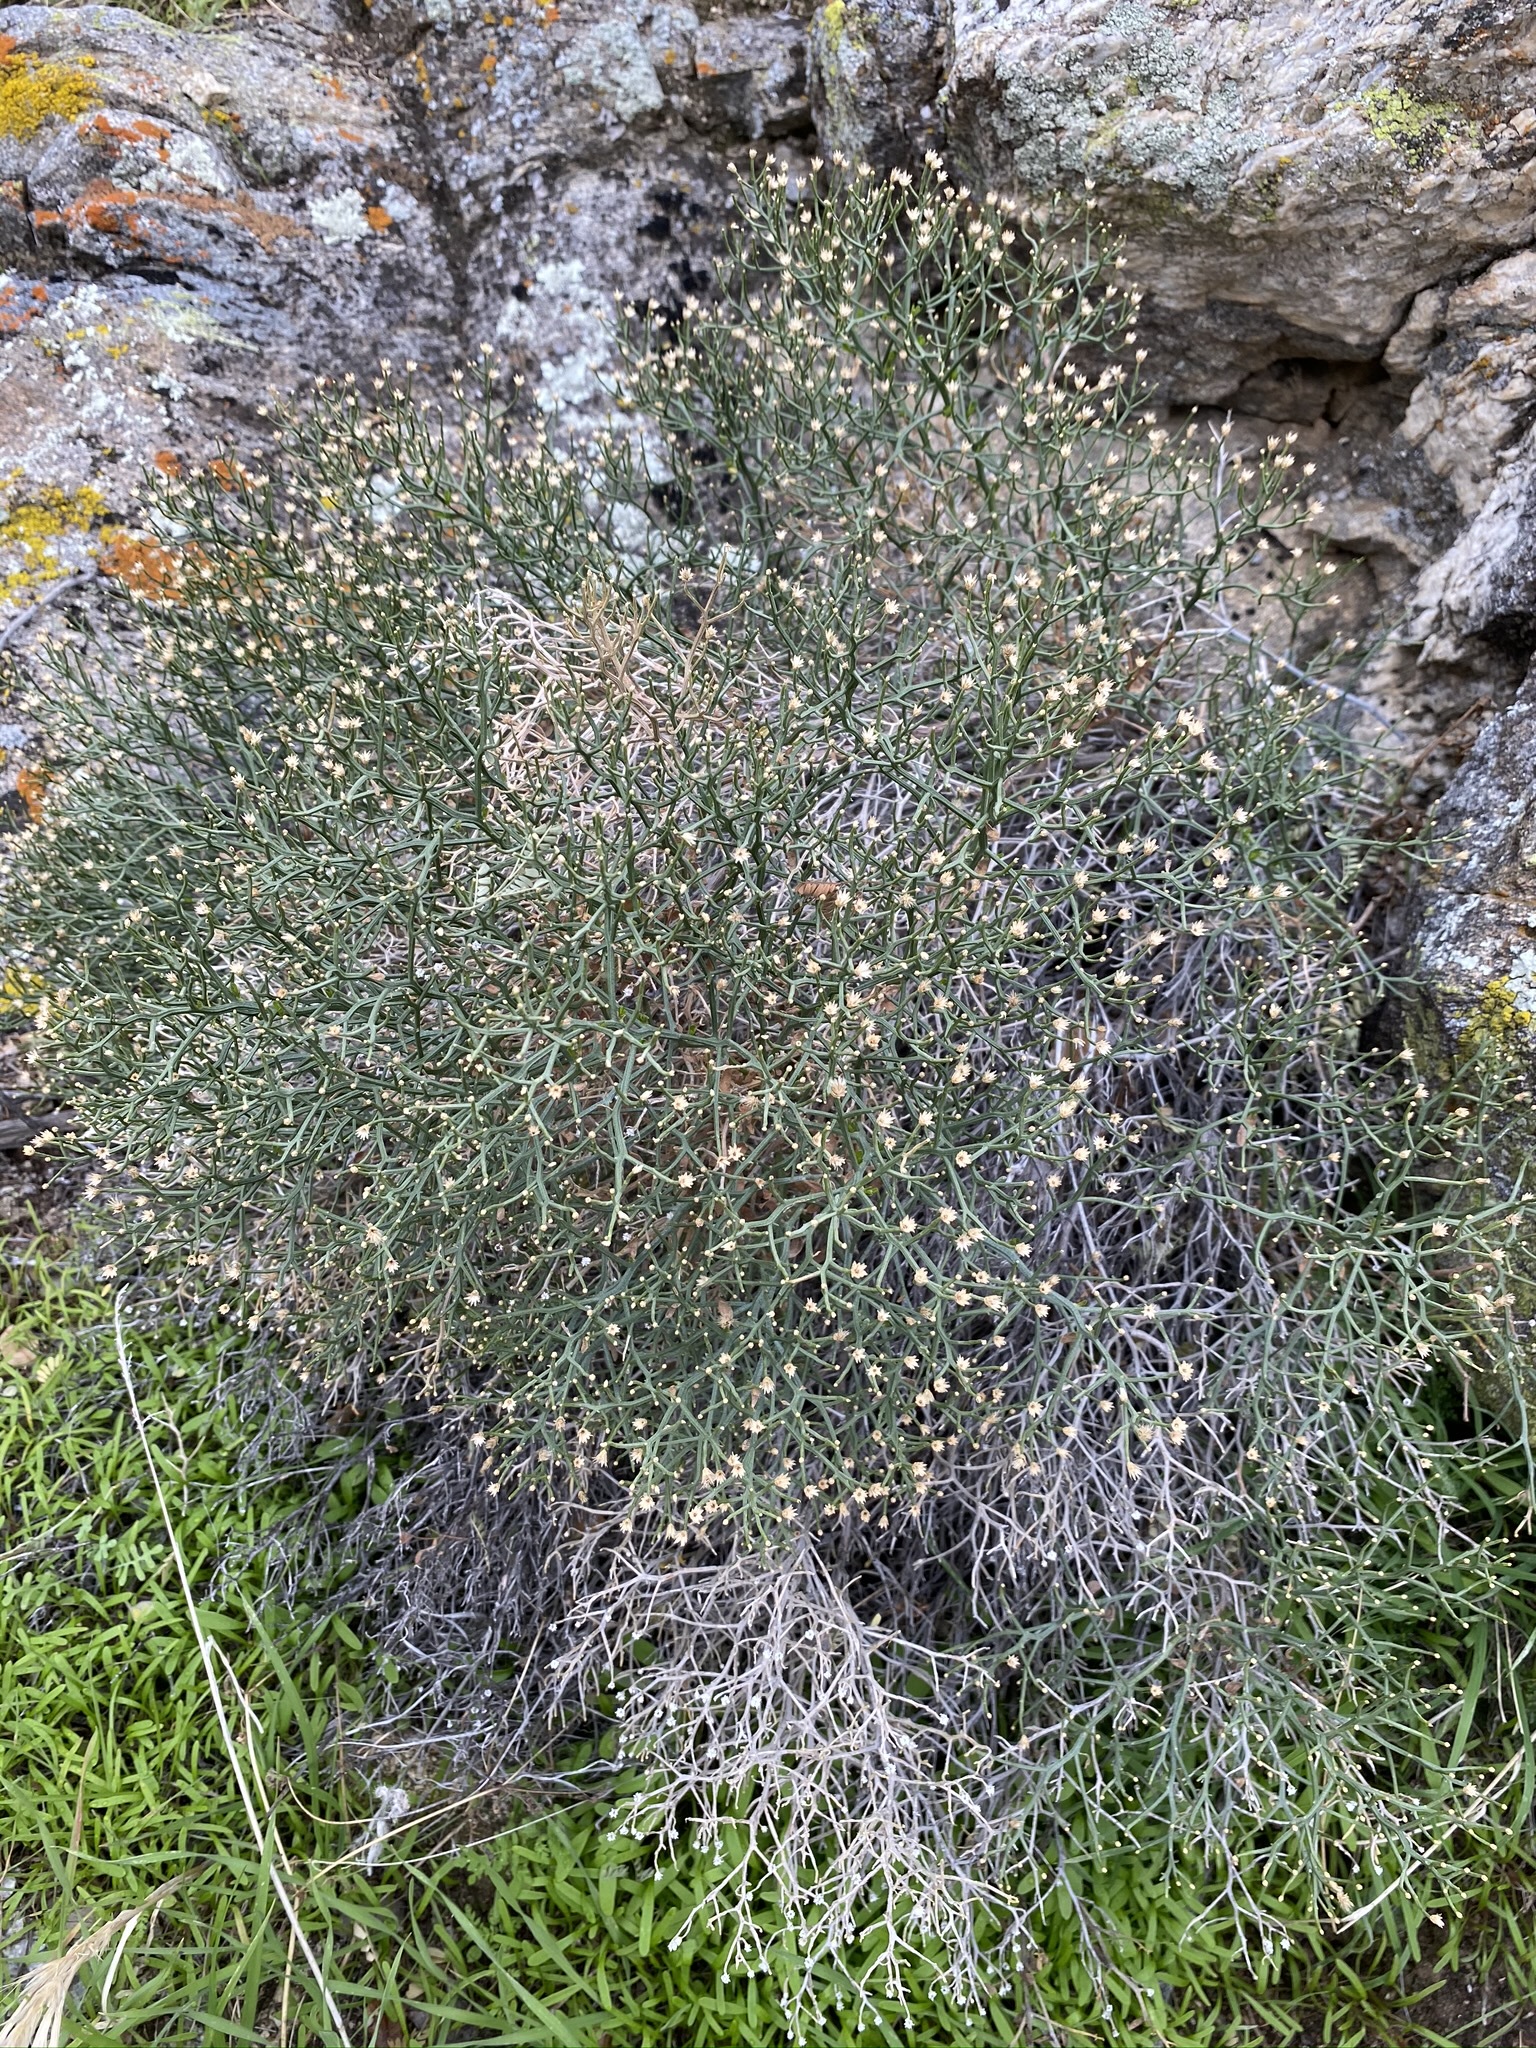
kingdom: Plantae
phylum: Tracheophyta
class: Magnoliopsida
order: Asterales
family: Asteraceae
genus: Baccharis
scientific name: Baccharis sergiloides
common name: Desert baccharis
